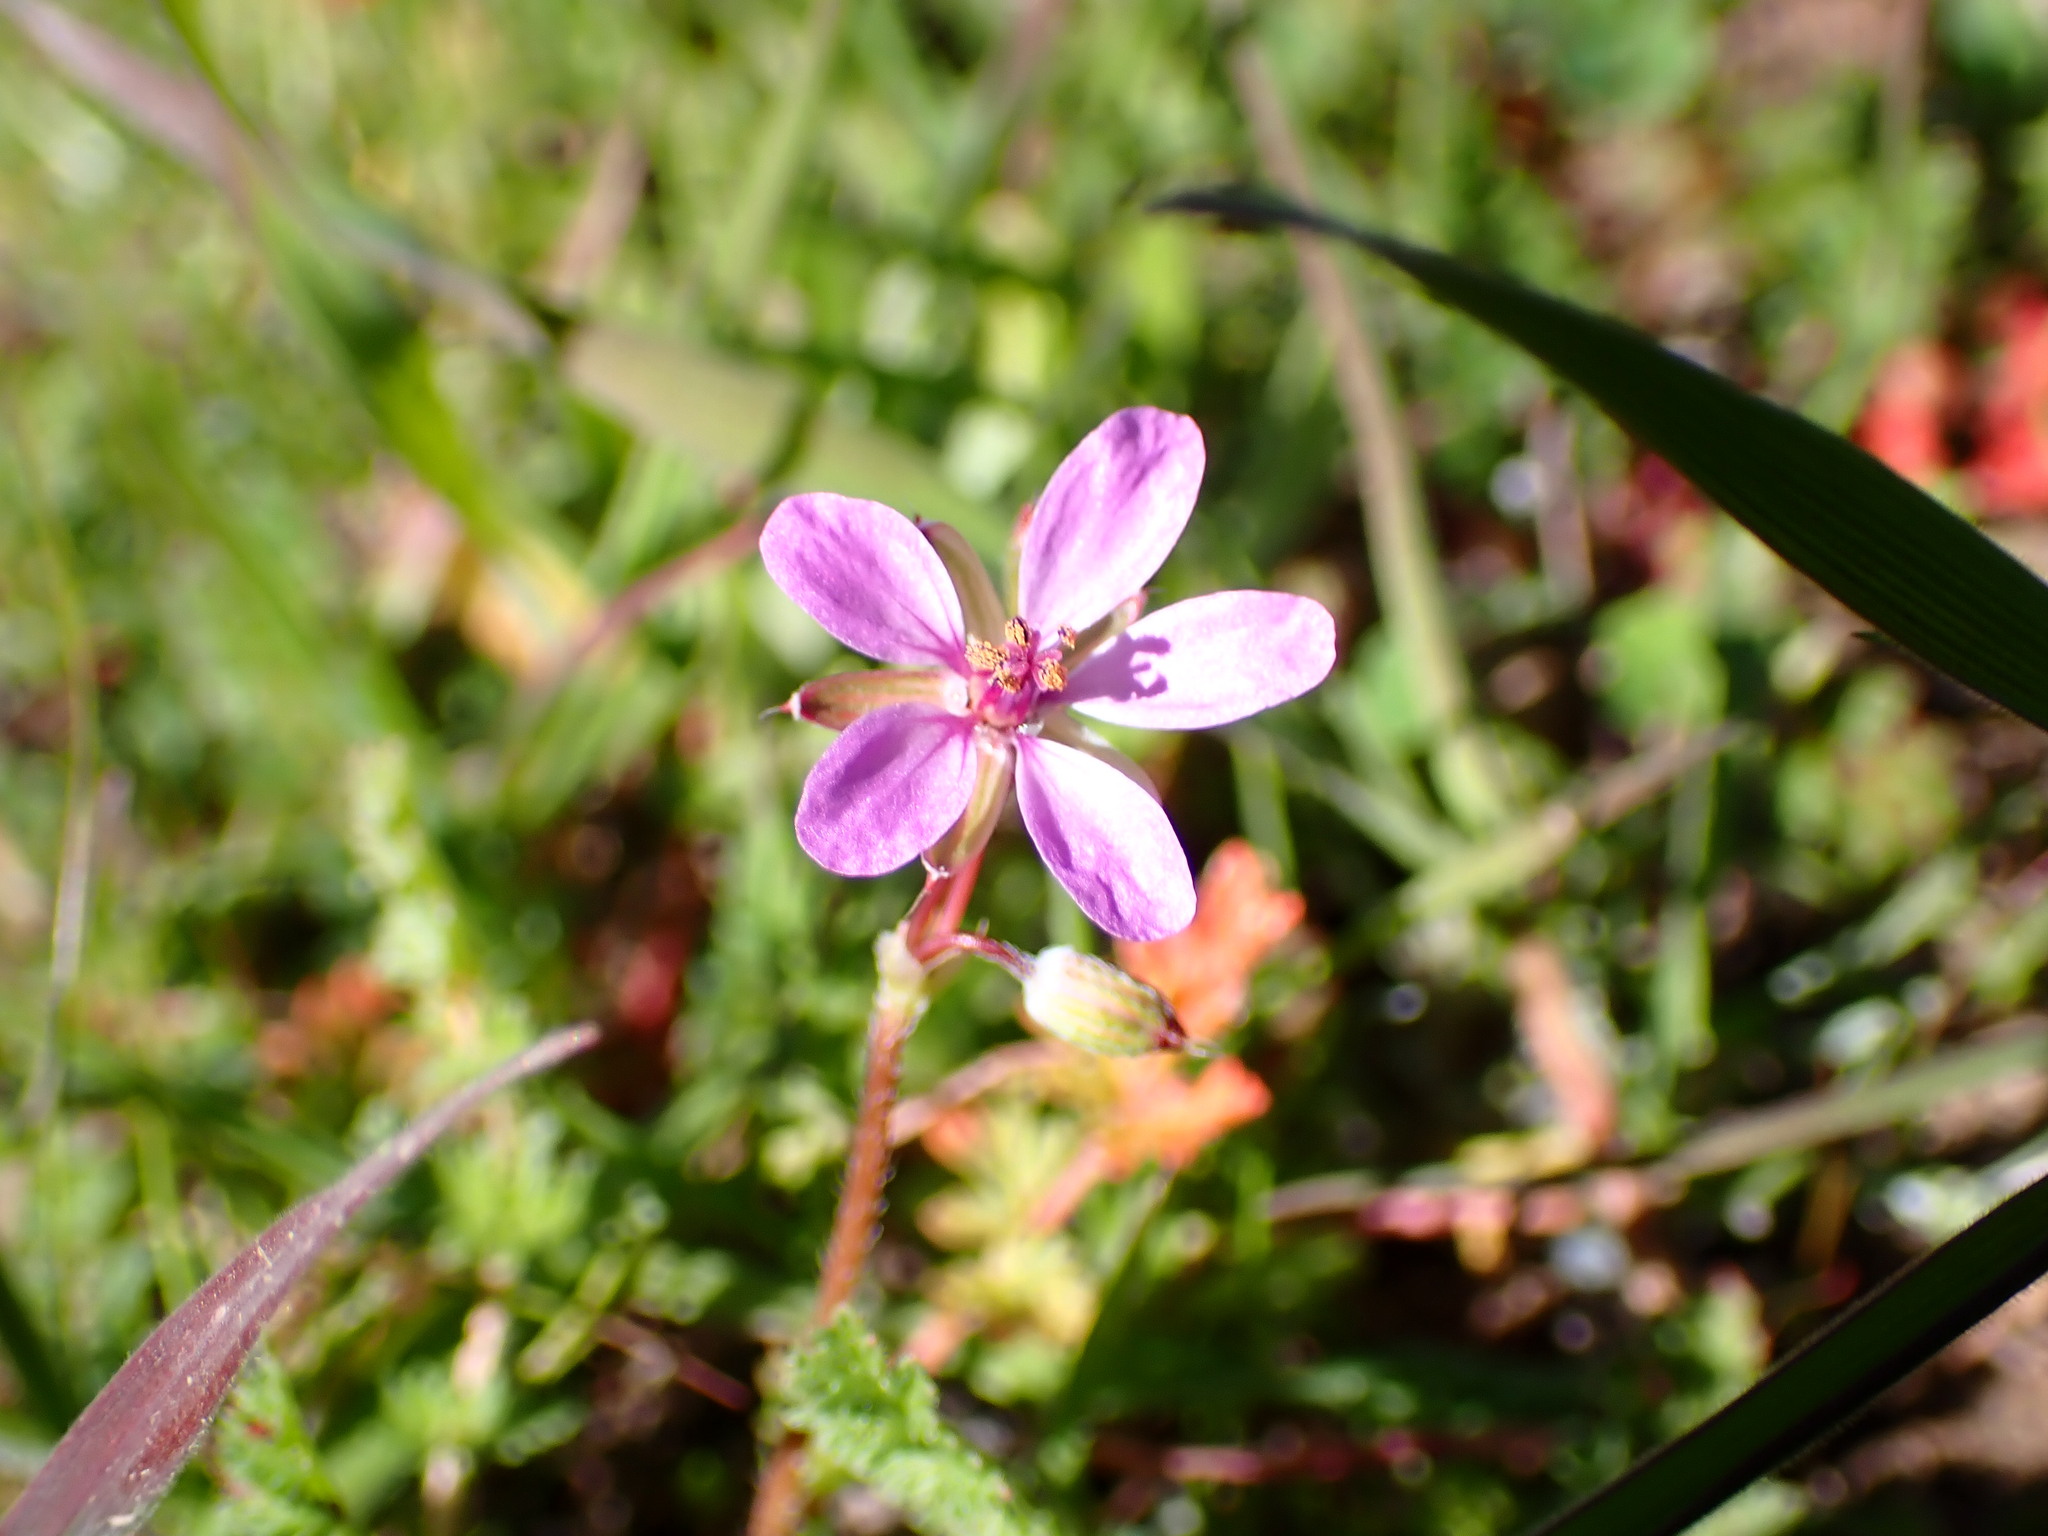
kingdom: Plantae
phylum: Tracheophyta
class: Magnoliopsida
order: Geraniales
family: Geraniaceae
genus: Erodium
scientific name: Erodium cicutarium
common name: Common stork's-bill
